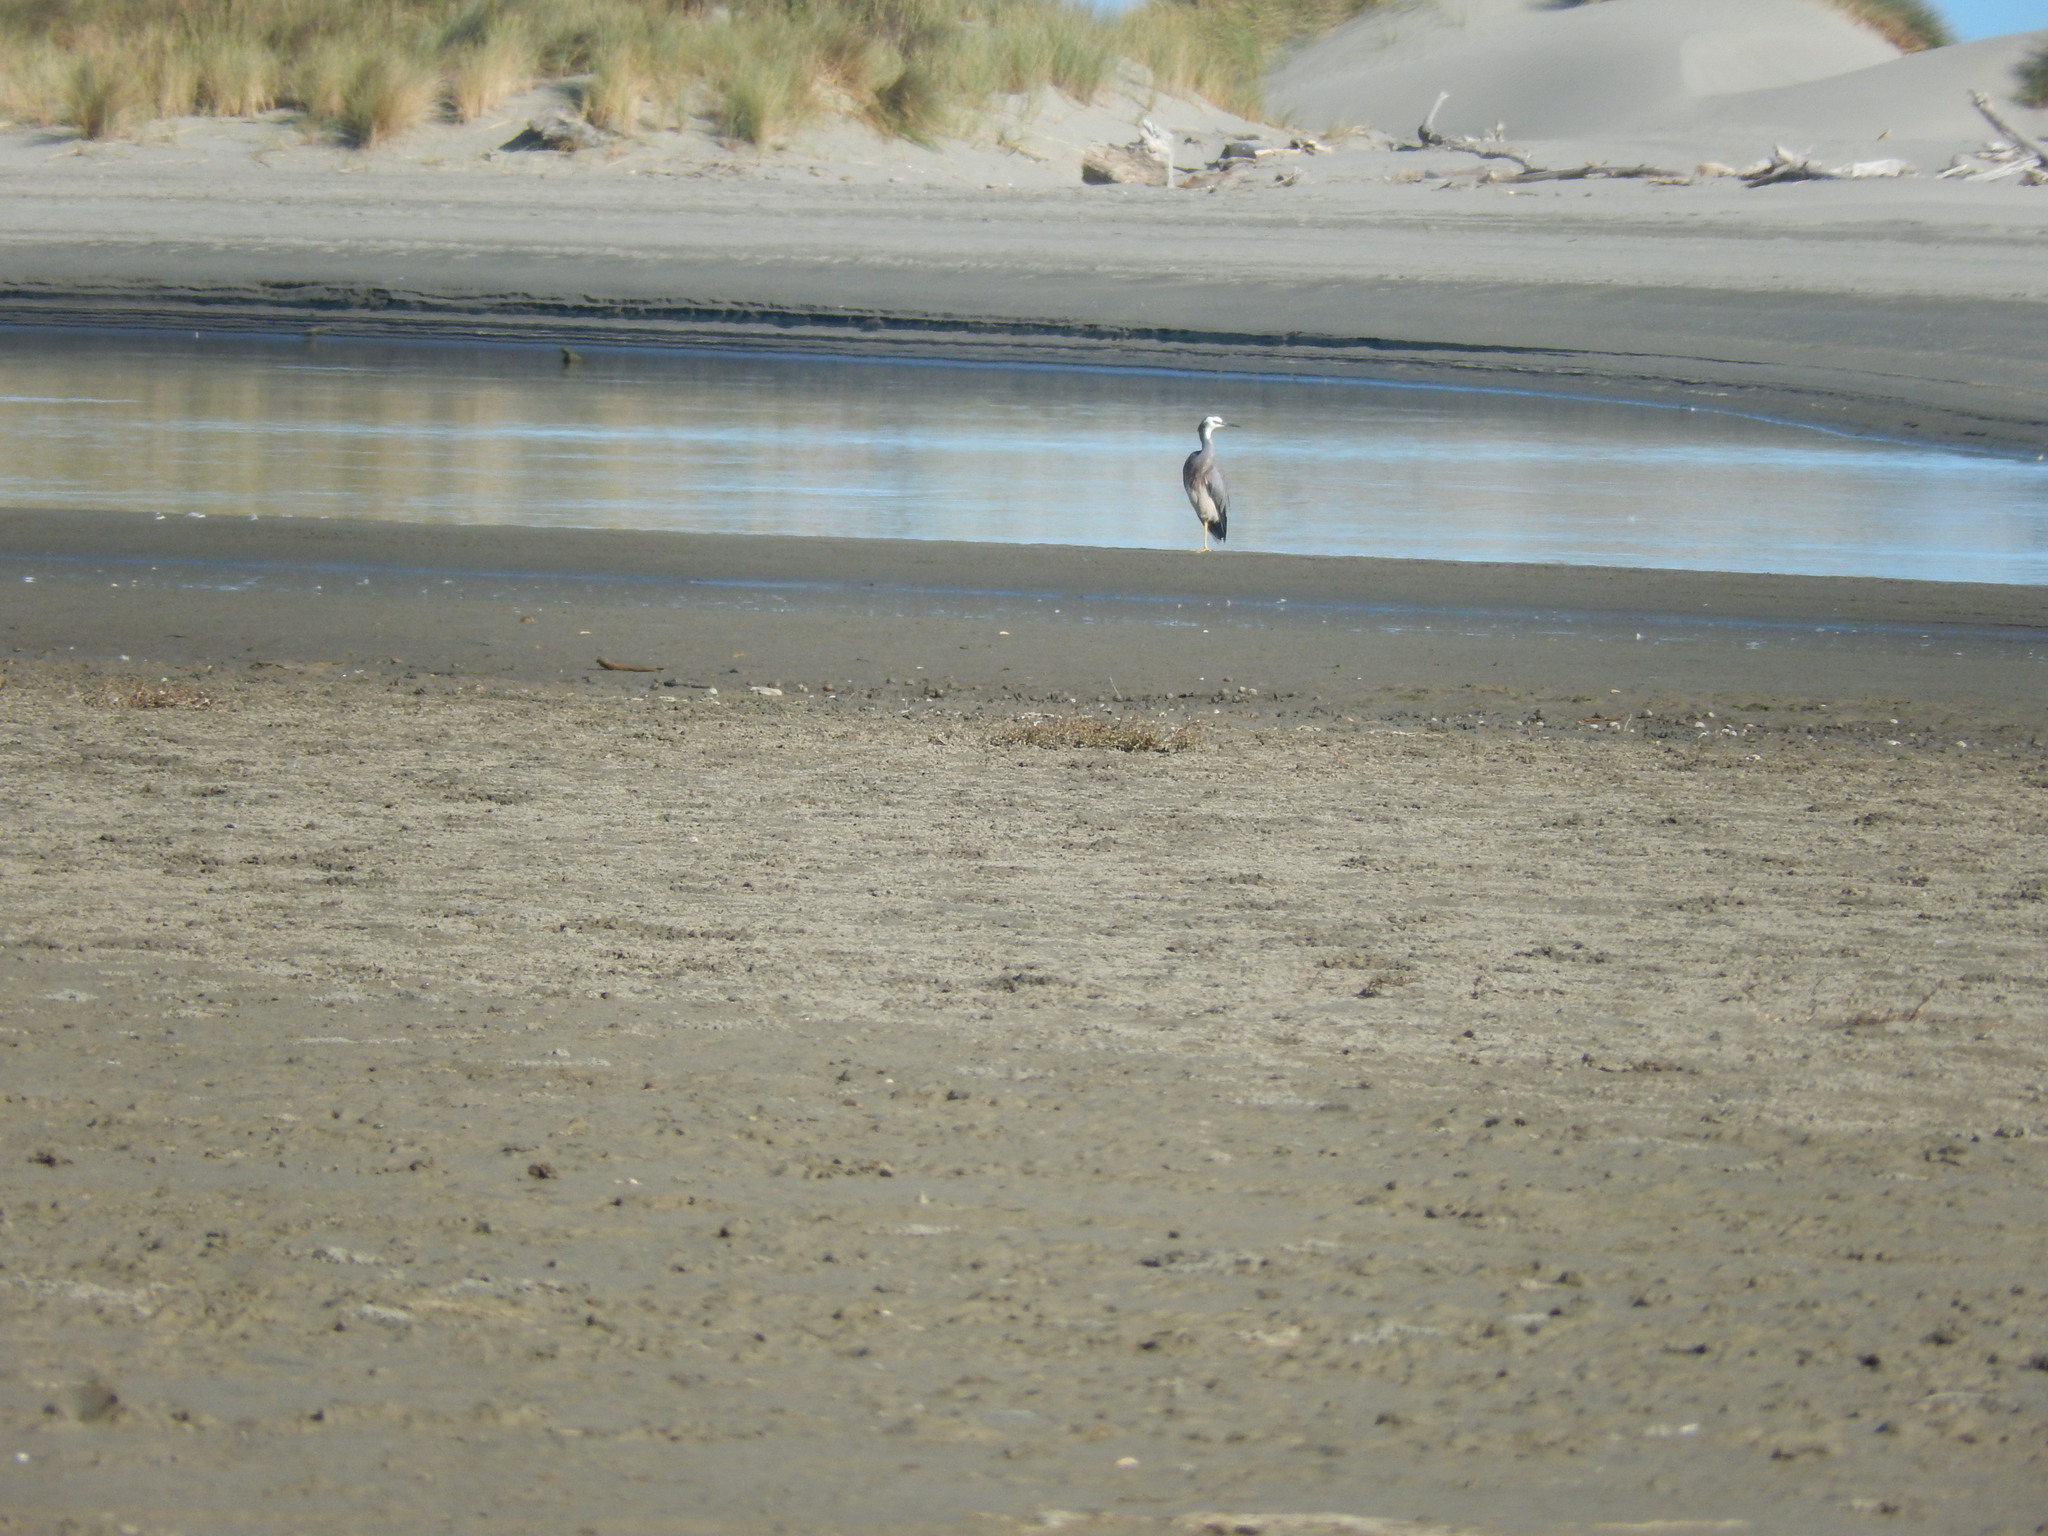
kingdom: Animalia
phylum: Chordata
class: Aves
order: Pelecaniformes
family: Ardeidae
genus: Egretta
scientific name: Egretta novaehollandiae
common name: White-faced heron
